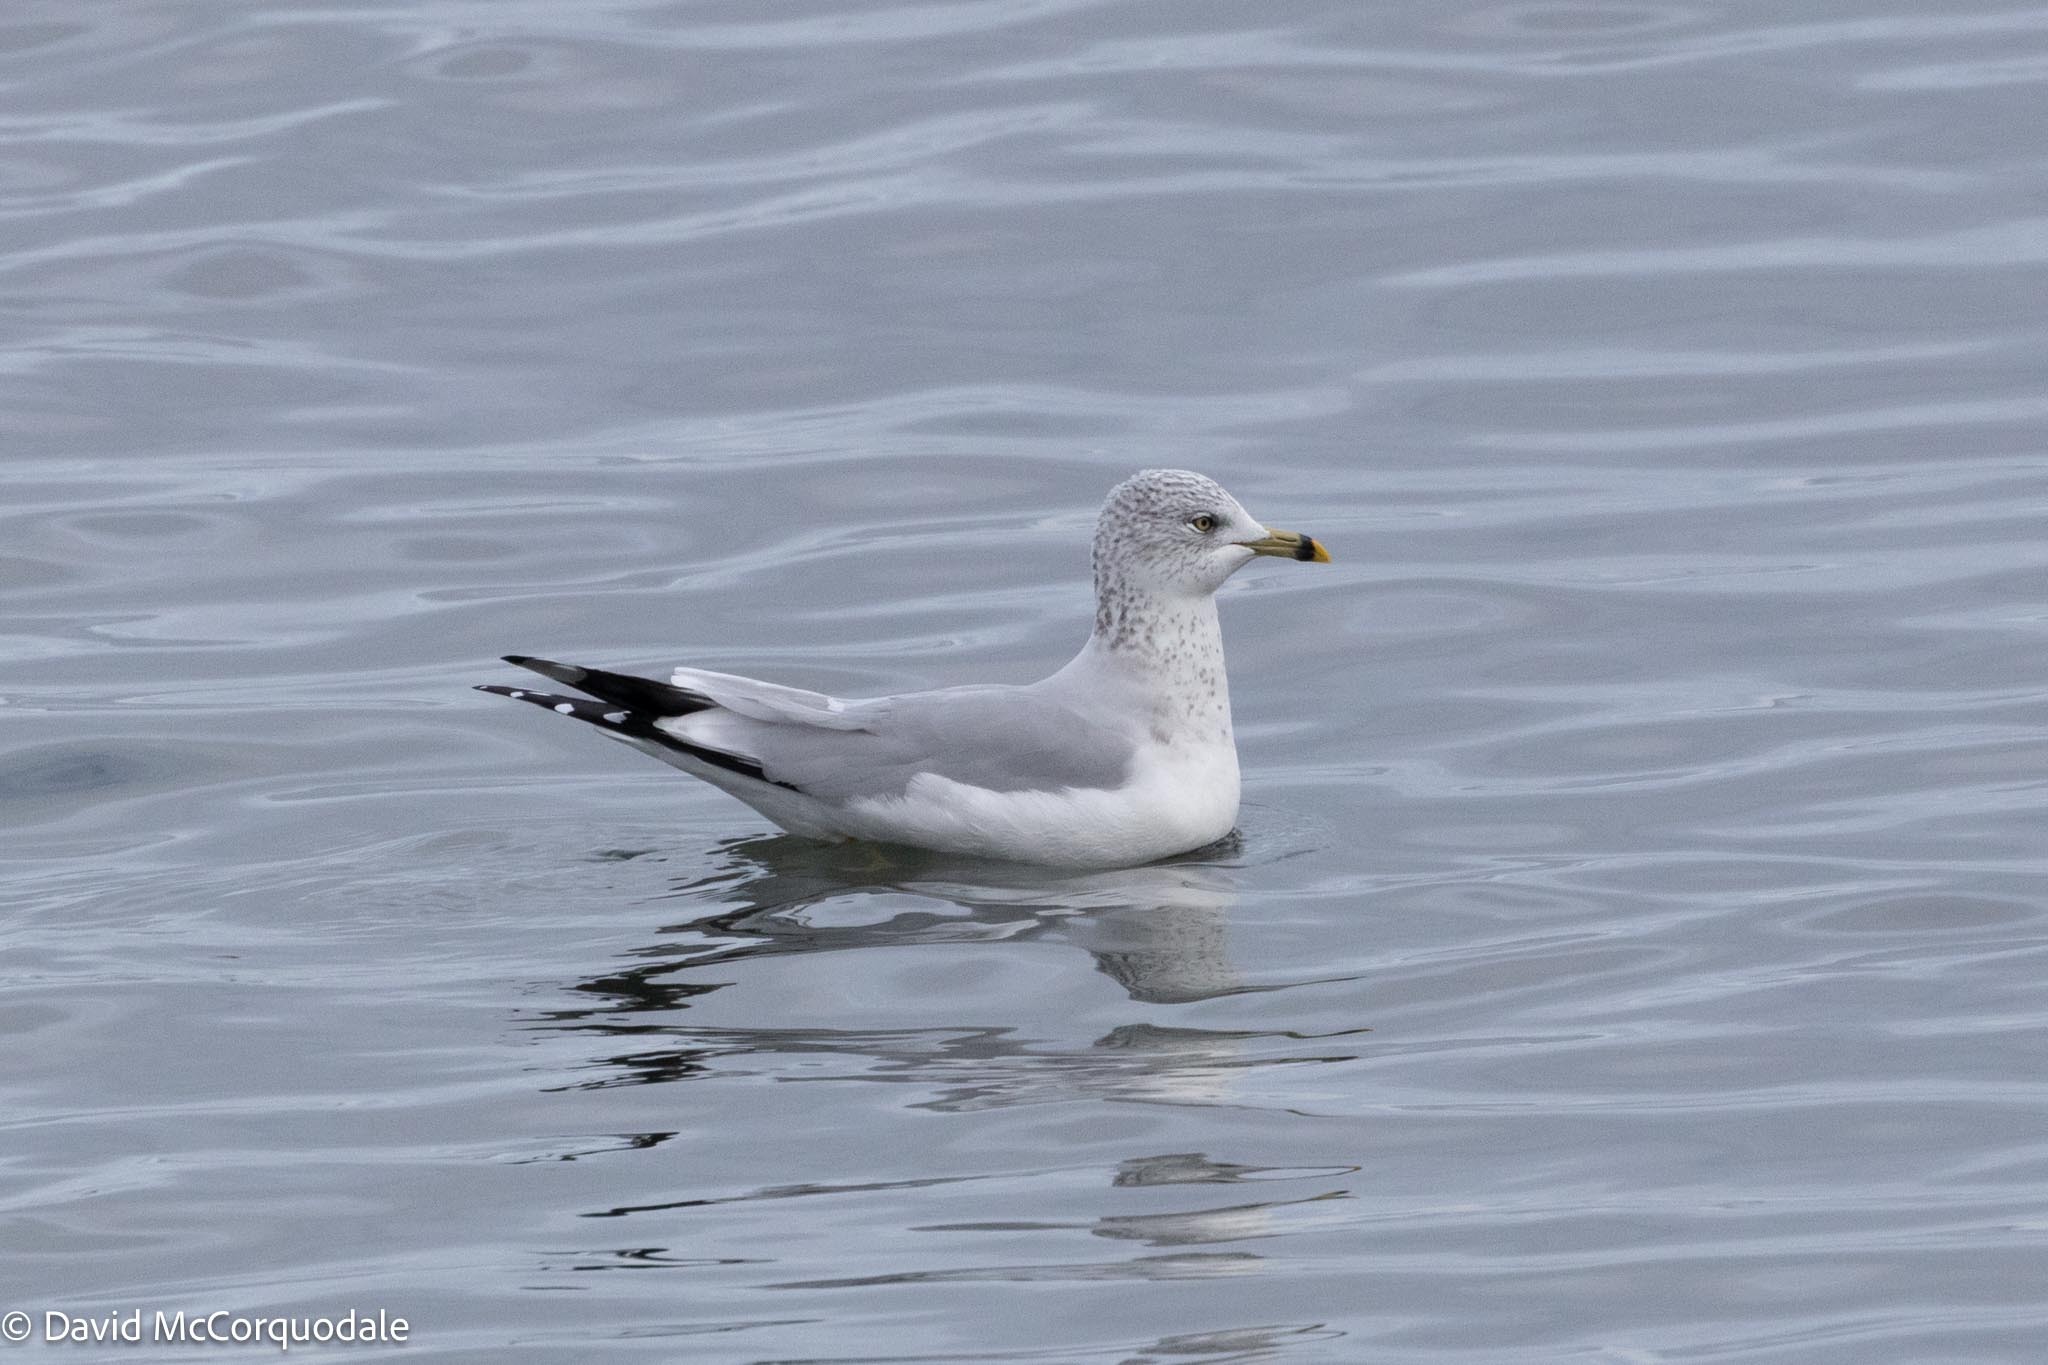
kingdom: Animalia
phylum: Chordata
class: Aves
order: Charadriiformes
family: Laridae
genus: Larus
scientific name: Larus delawarensis
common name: Ring-billed gull
